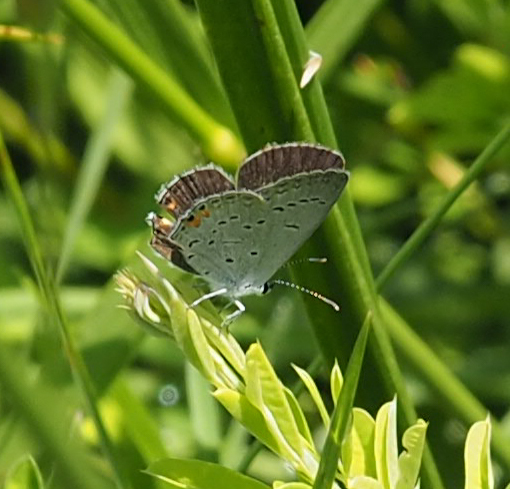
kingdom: Animalia
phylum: Arthropoda
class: Insecta
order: Lepidoptera
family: Lycaenidae
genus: Elkalyce
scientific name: Elkalyce comyntas
